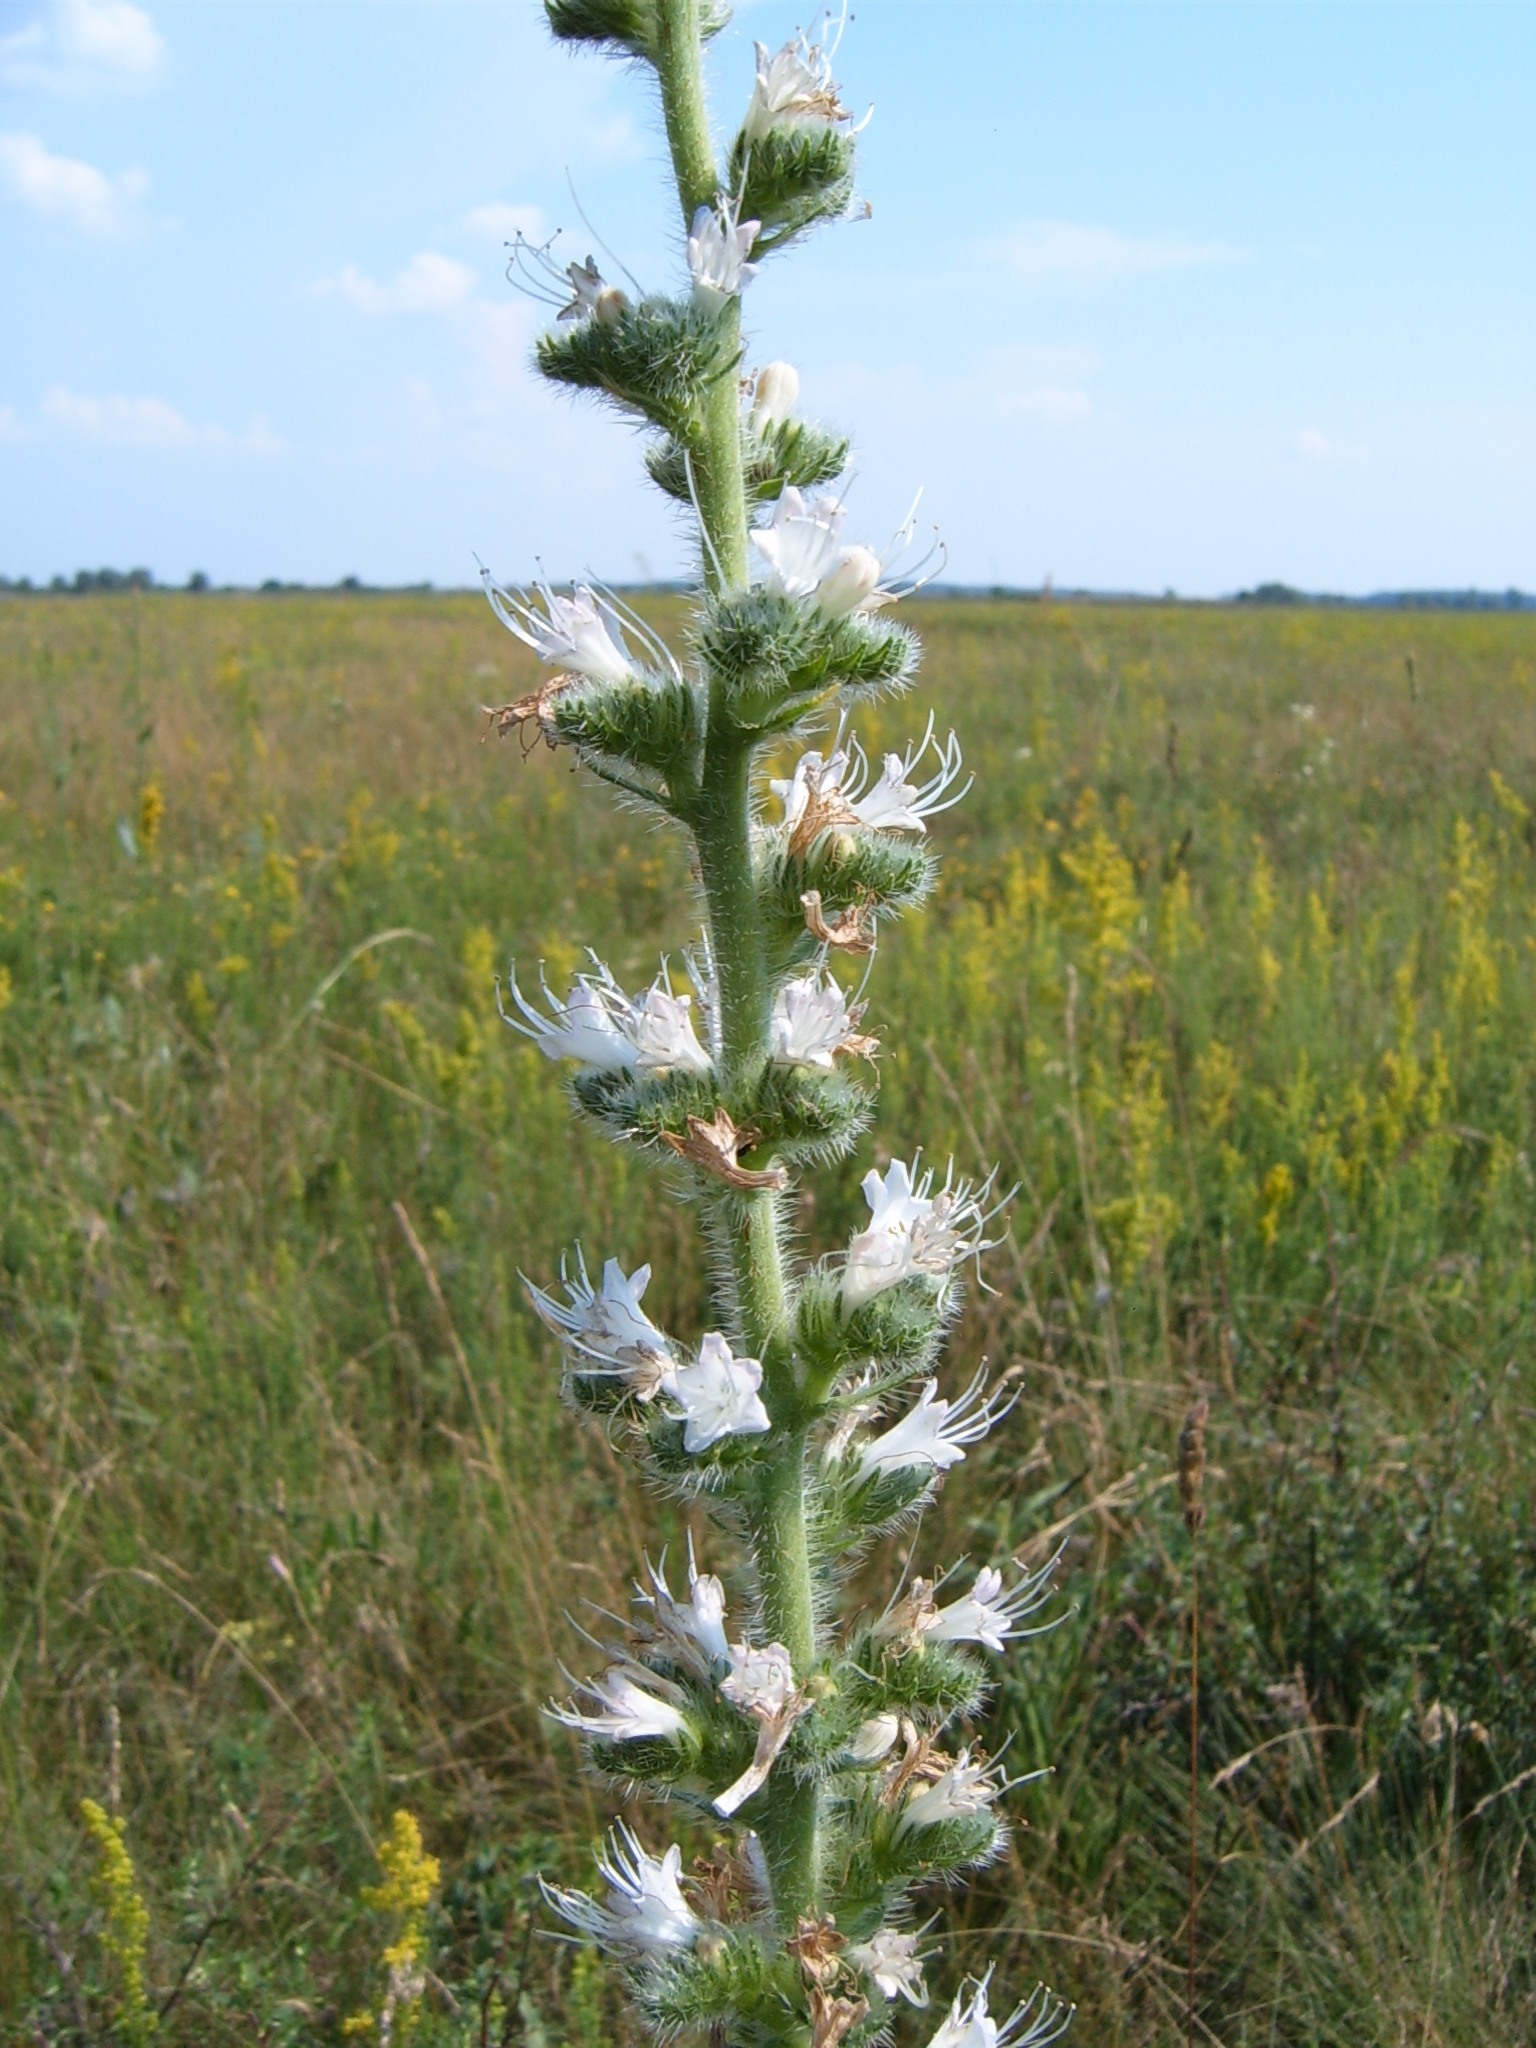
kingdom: Plantae
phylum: Tracheophyta
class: Magnoliopsida
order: Boraginales
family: Boraginaceae
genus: Echium
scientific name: Echium italicum
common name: Italian viper's bugloss
